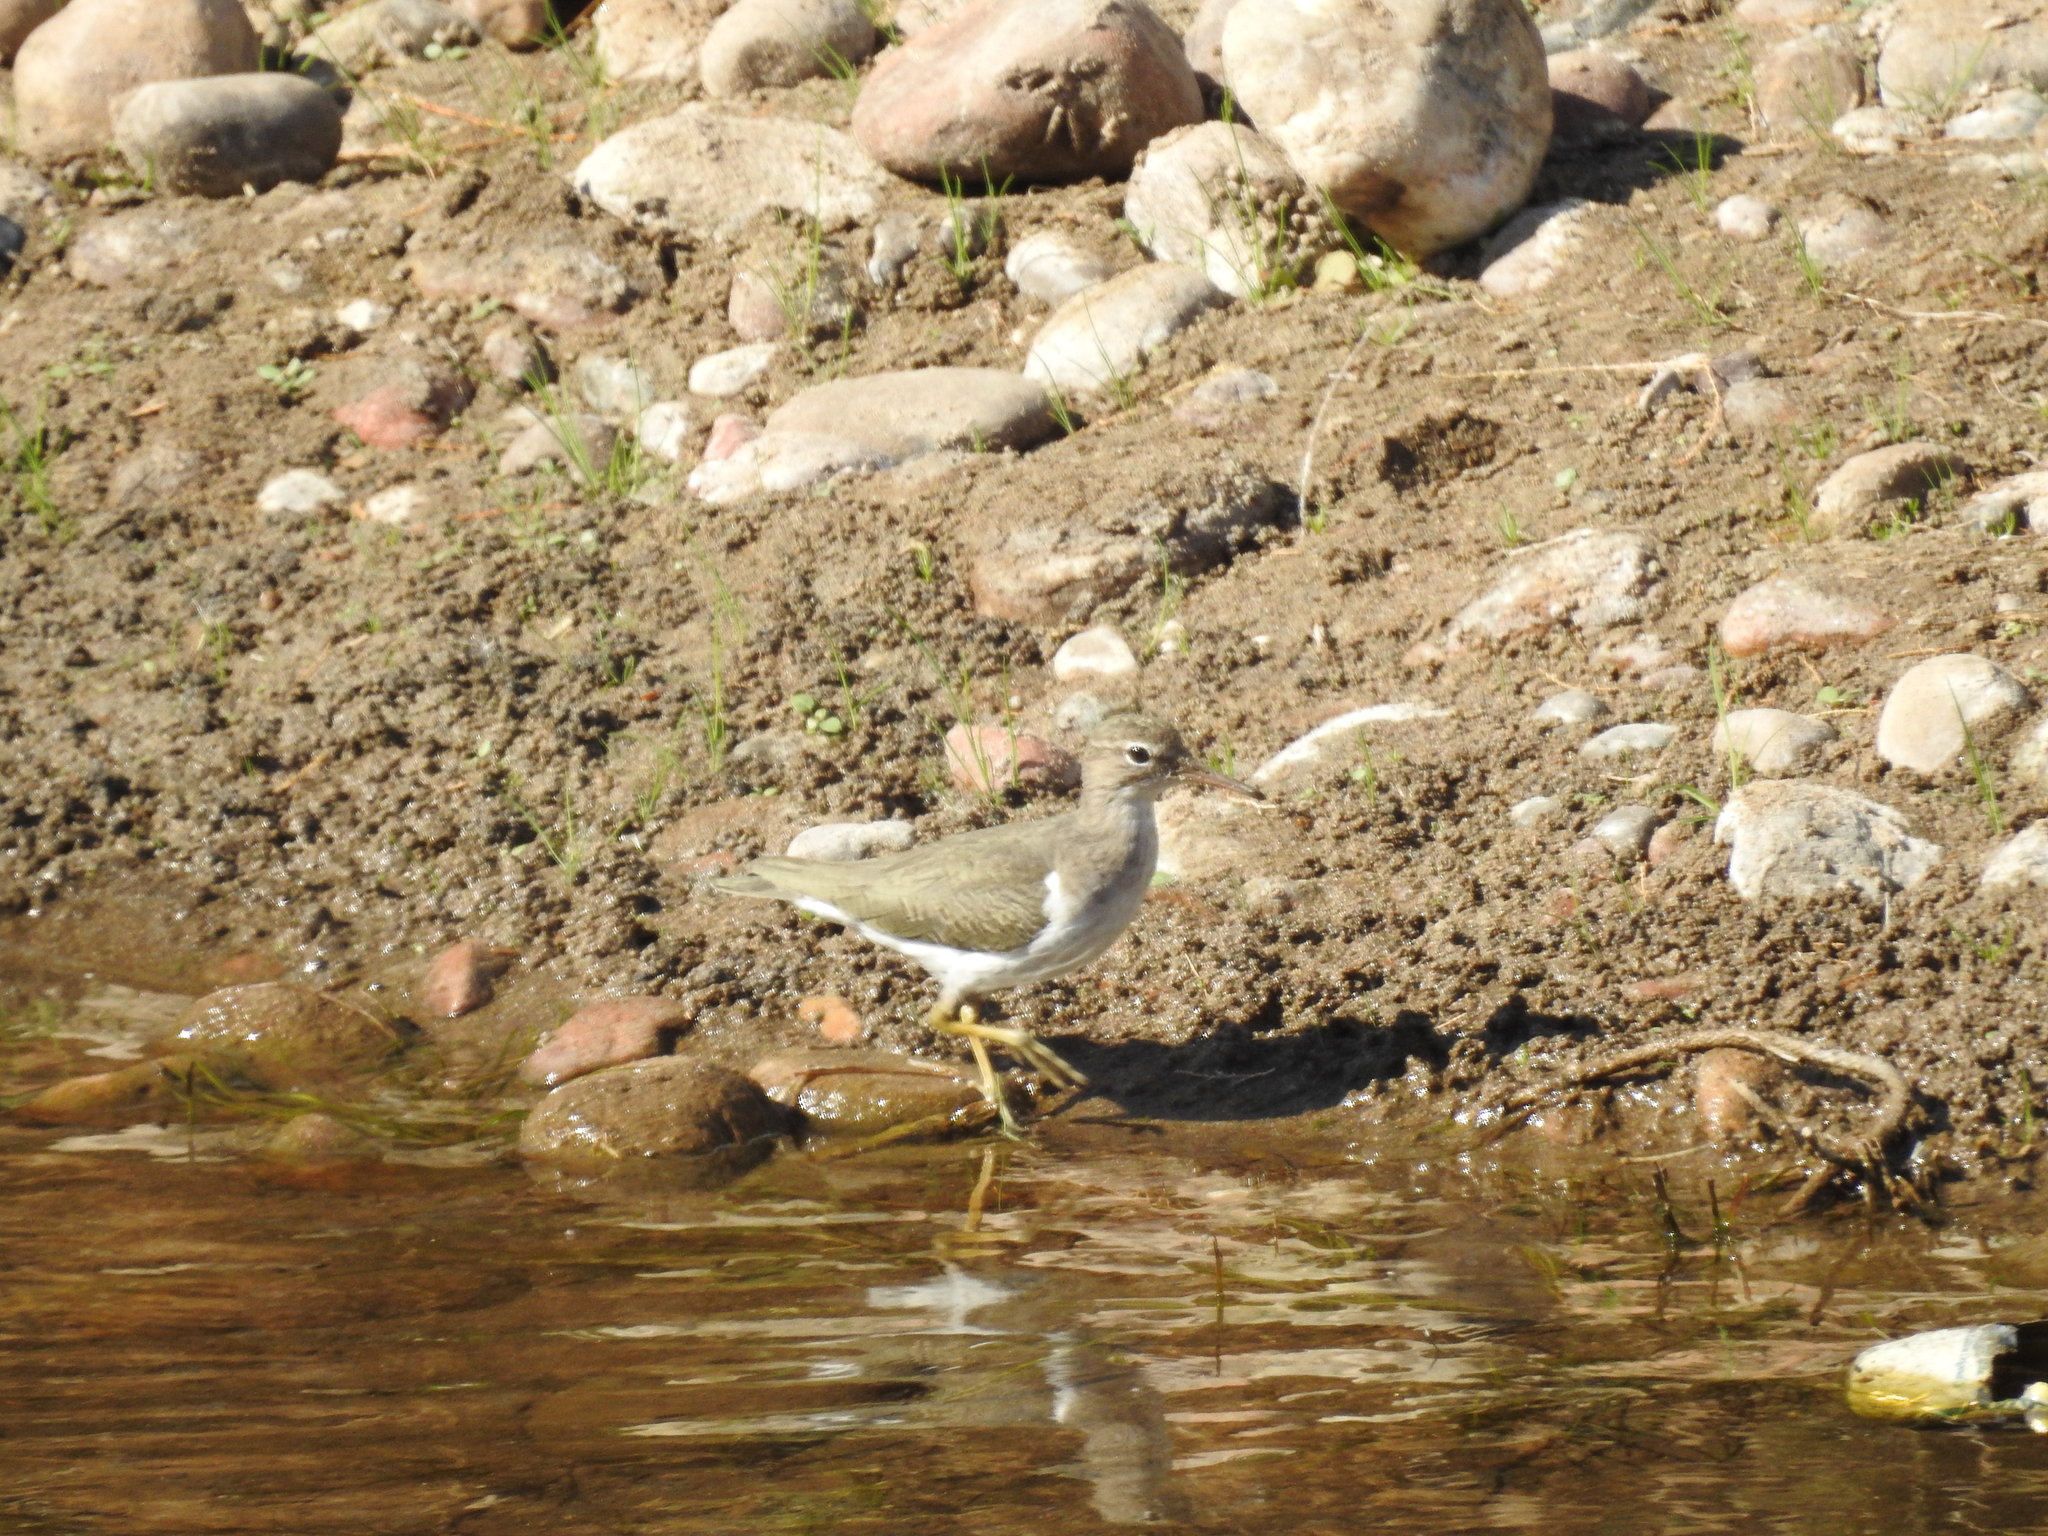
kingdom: Animalia
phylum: Chordata
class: Aves
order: Charadriiformes
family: Scolopacidae
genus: Actitis
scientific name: Actitis macularius
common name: Spotted sandpiper
